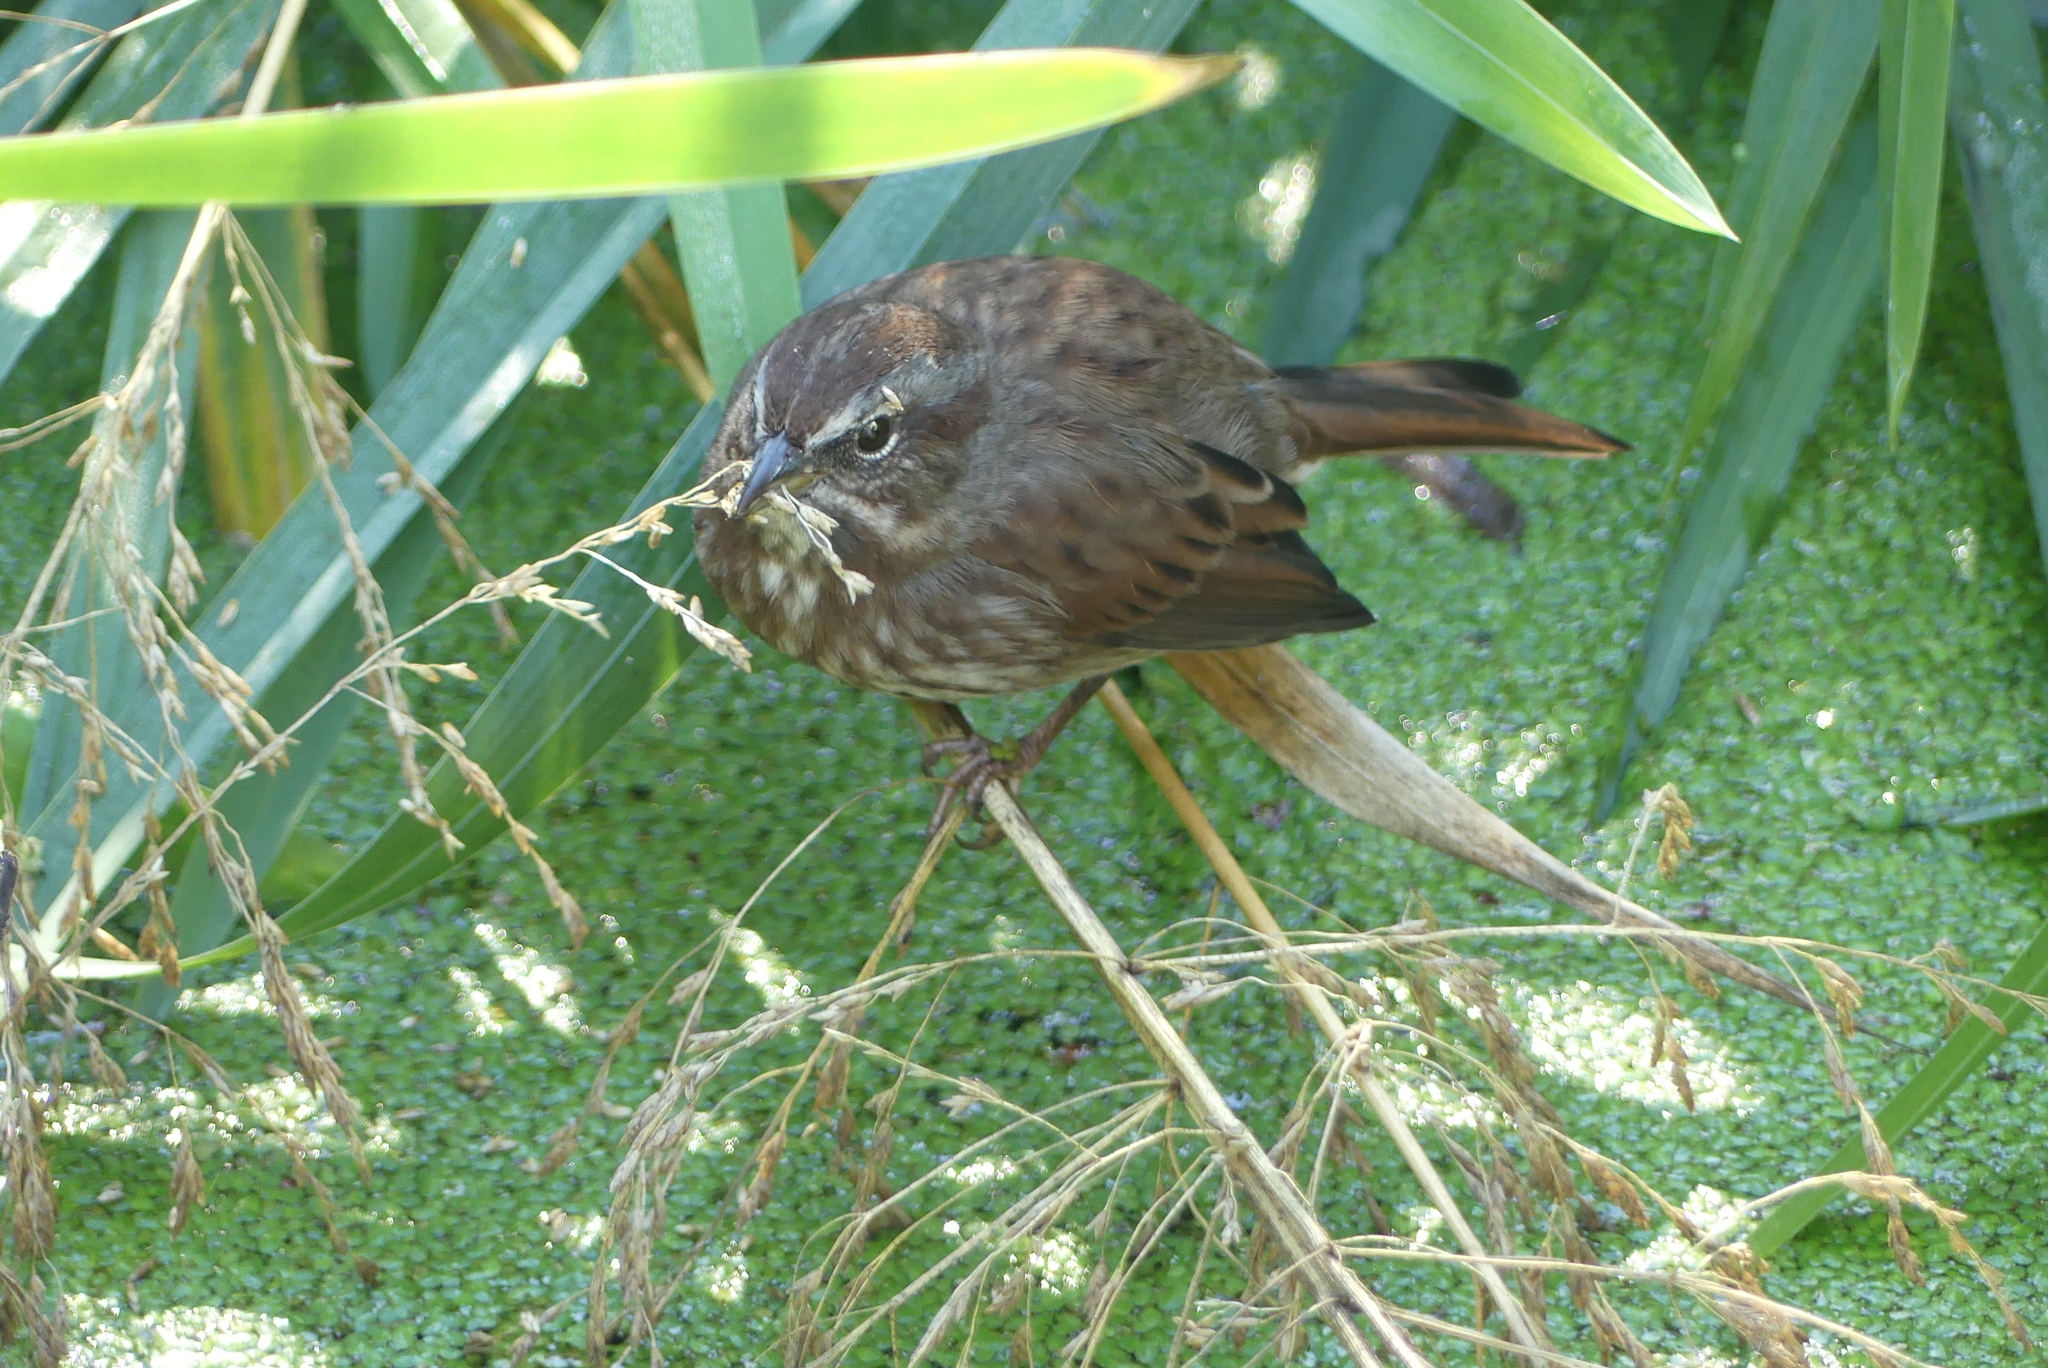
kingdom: Animalia
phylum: Chordata
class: Aves
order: Passeriformes
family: Passerellidae
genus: Melospiza
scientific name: Melospiza melodia
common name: Song sparrow
